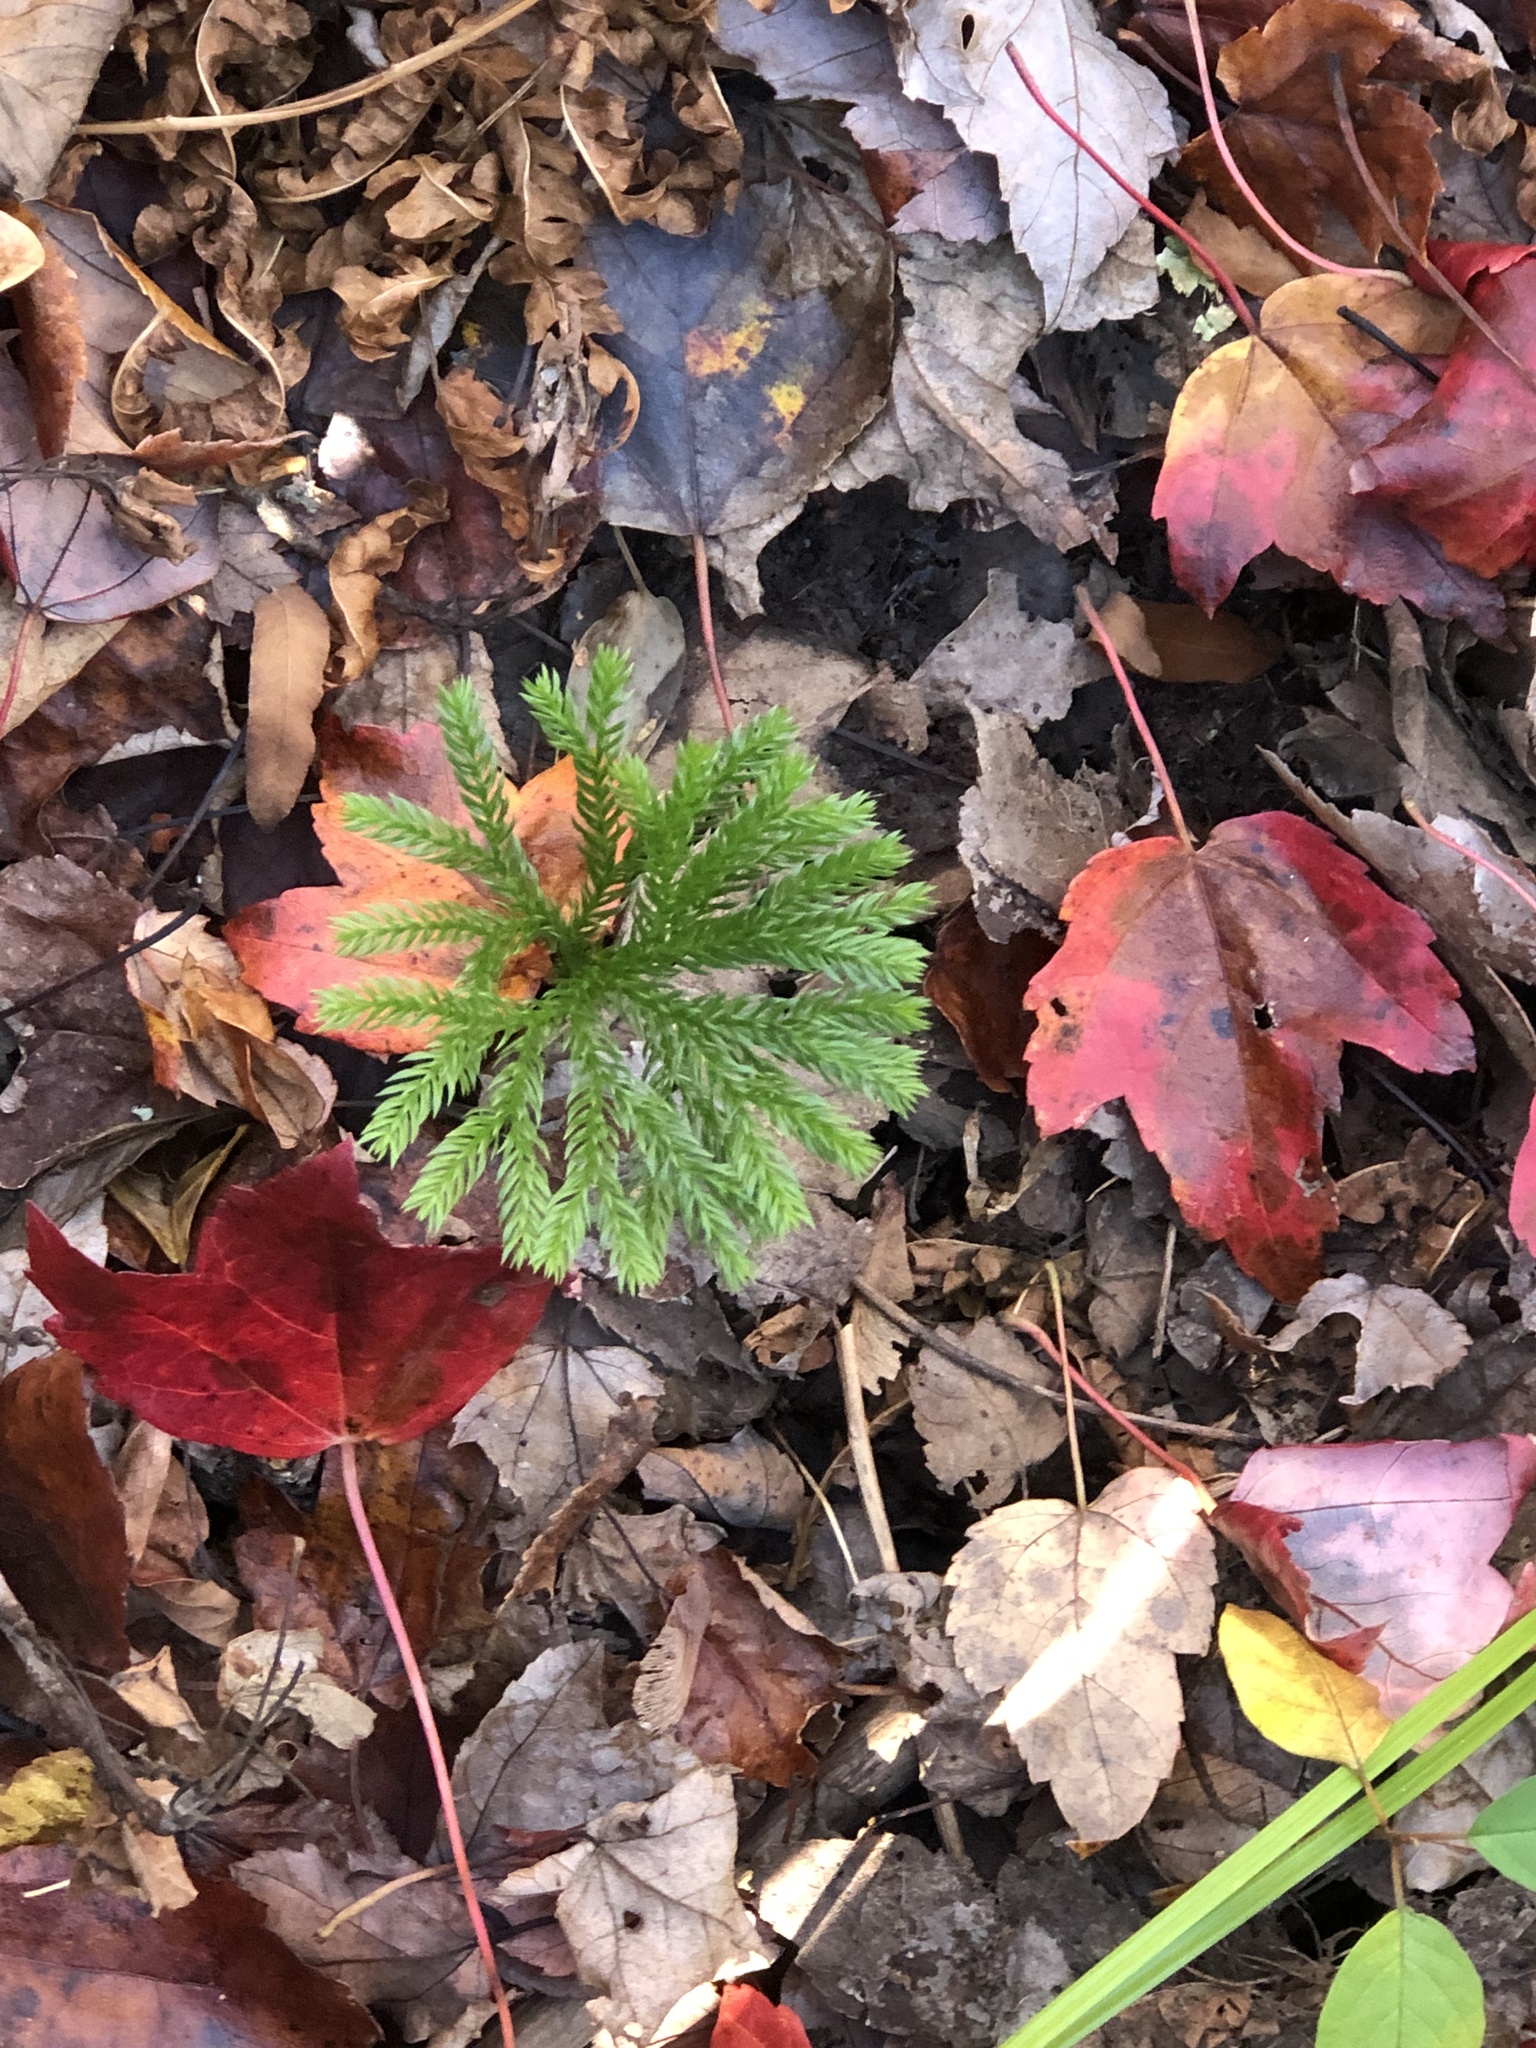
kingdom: Plantae
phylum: Tracheophyta
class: Lycopodiopsida
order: Lycopodiales
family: Lycopodiaceae
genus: Dendrolycopodium
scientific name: Dendrolycopodium obscurum
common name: Common ground-pine
